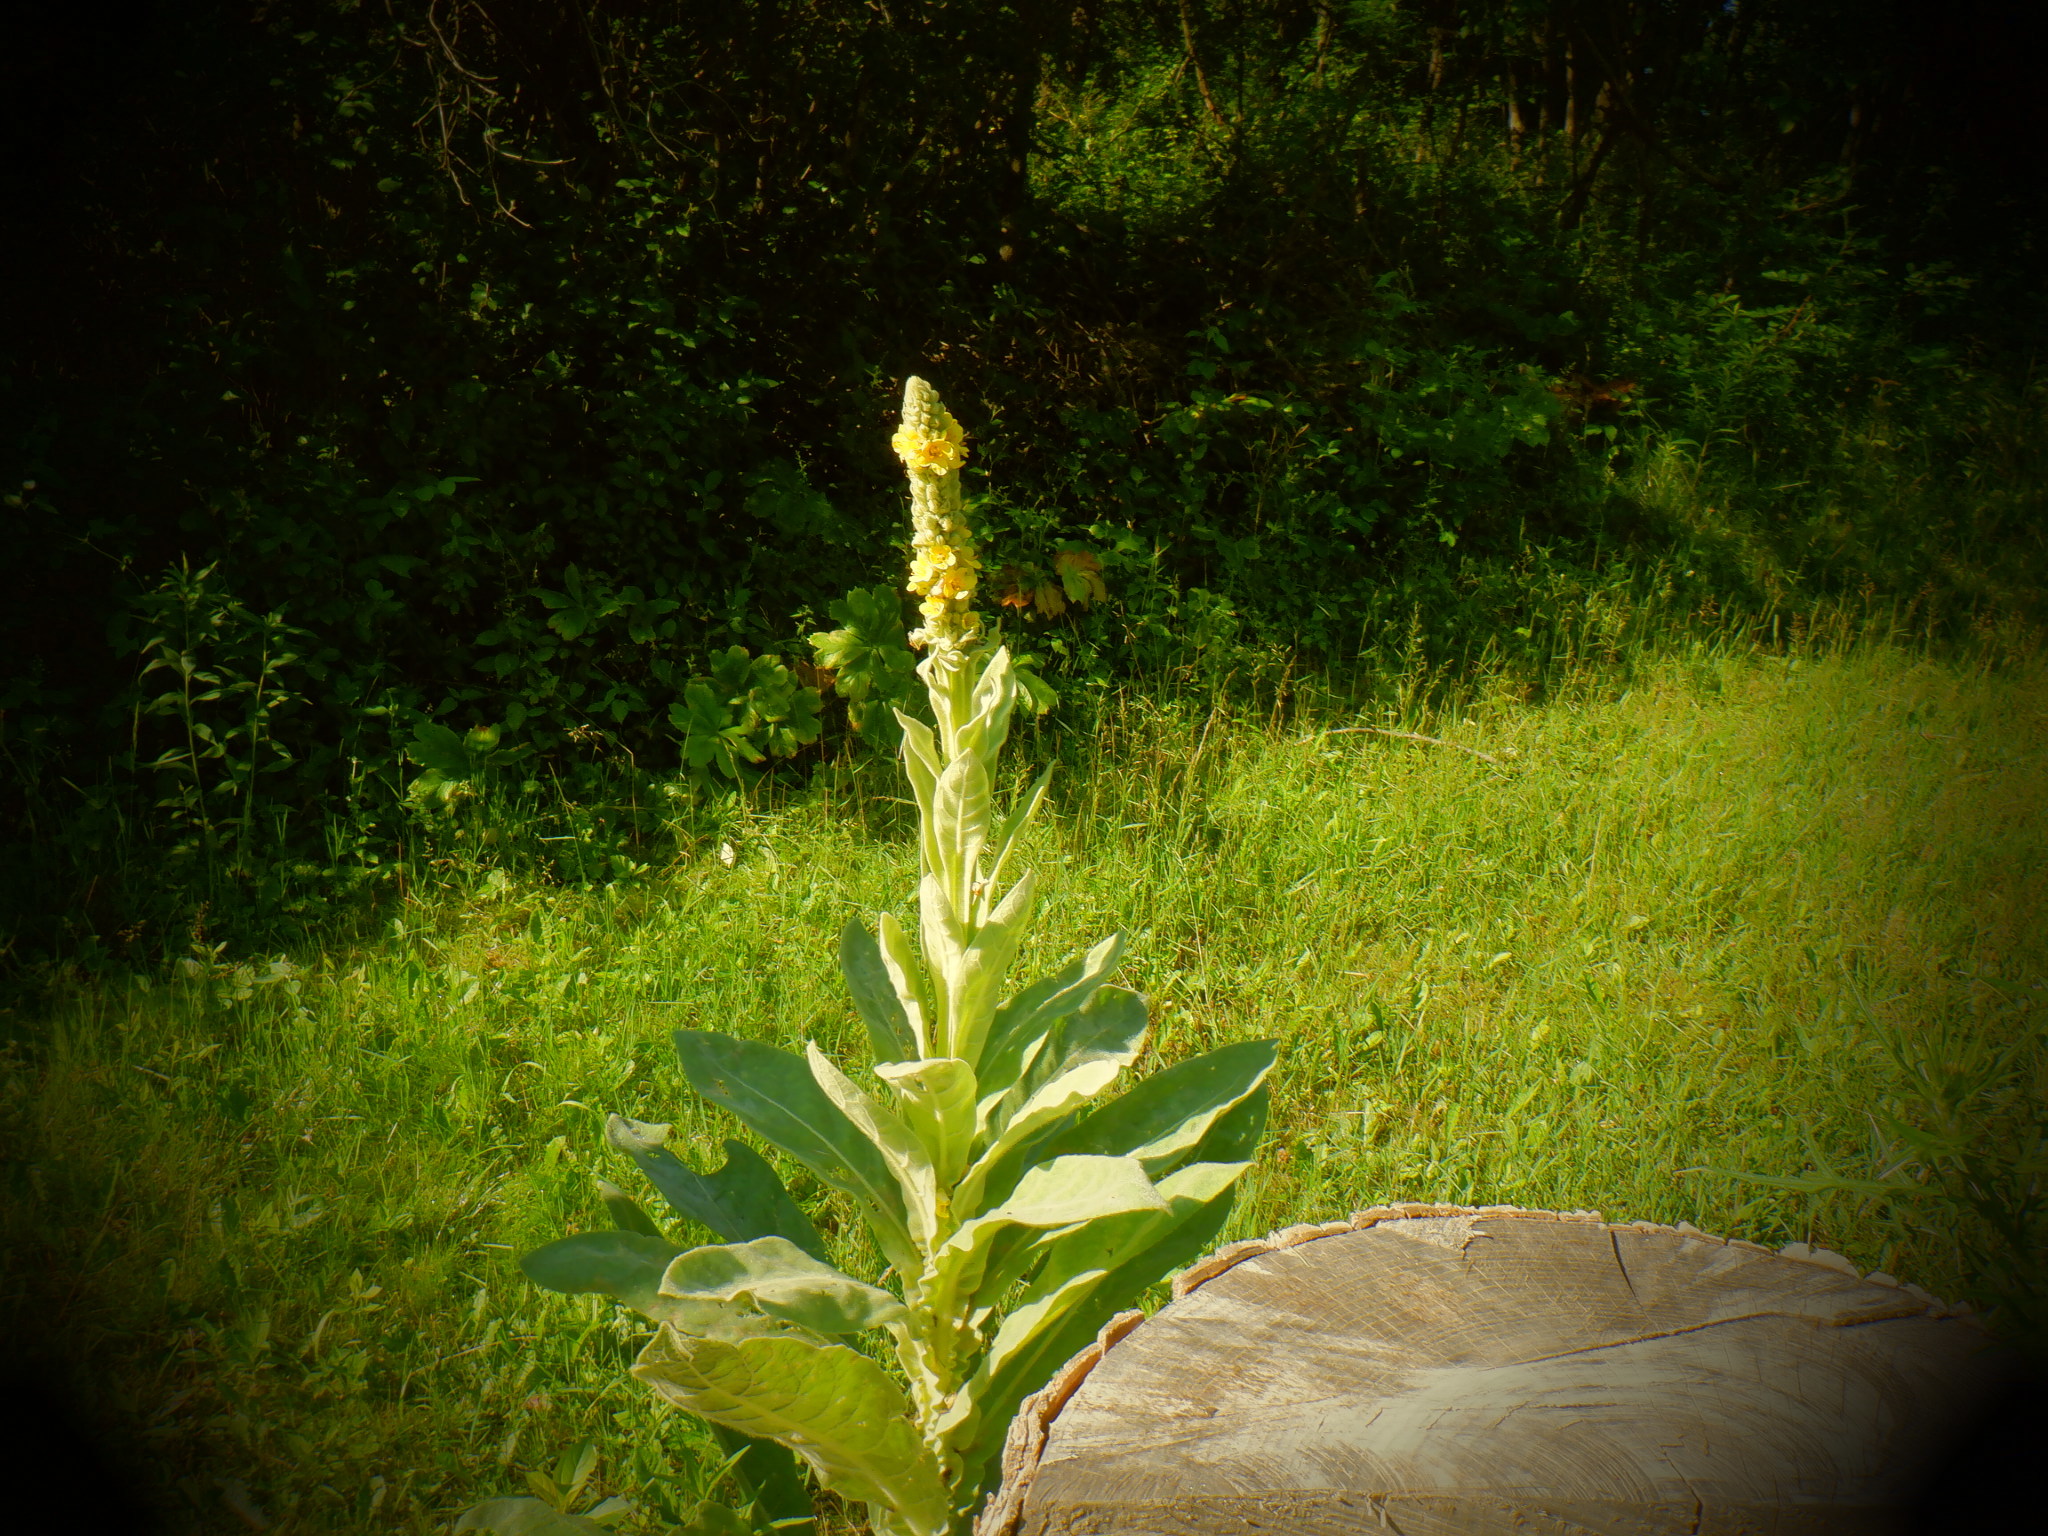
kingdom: Plantae
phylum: Tracheophyta
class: Magnoliopsida
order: Lamiales
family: Scrophulariaceae
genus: Verbascum
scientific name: Verbascum thapsus
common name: Common mullein
